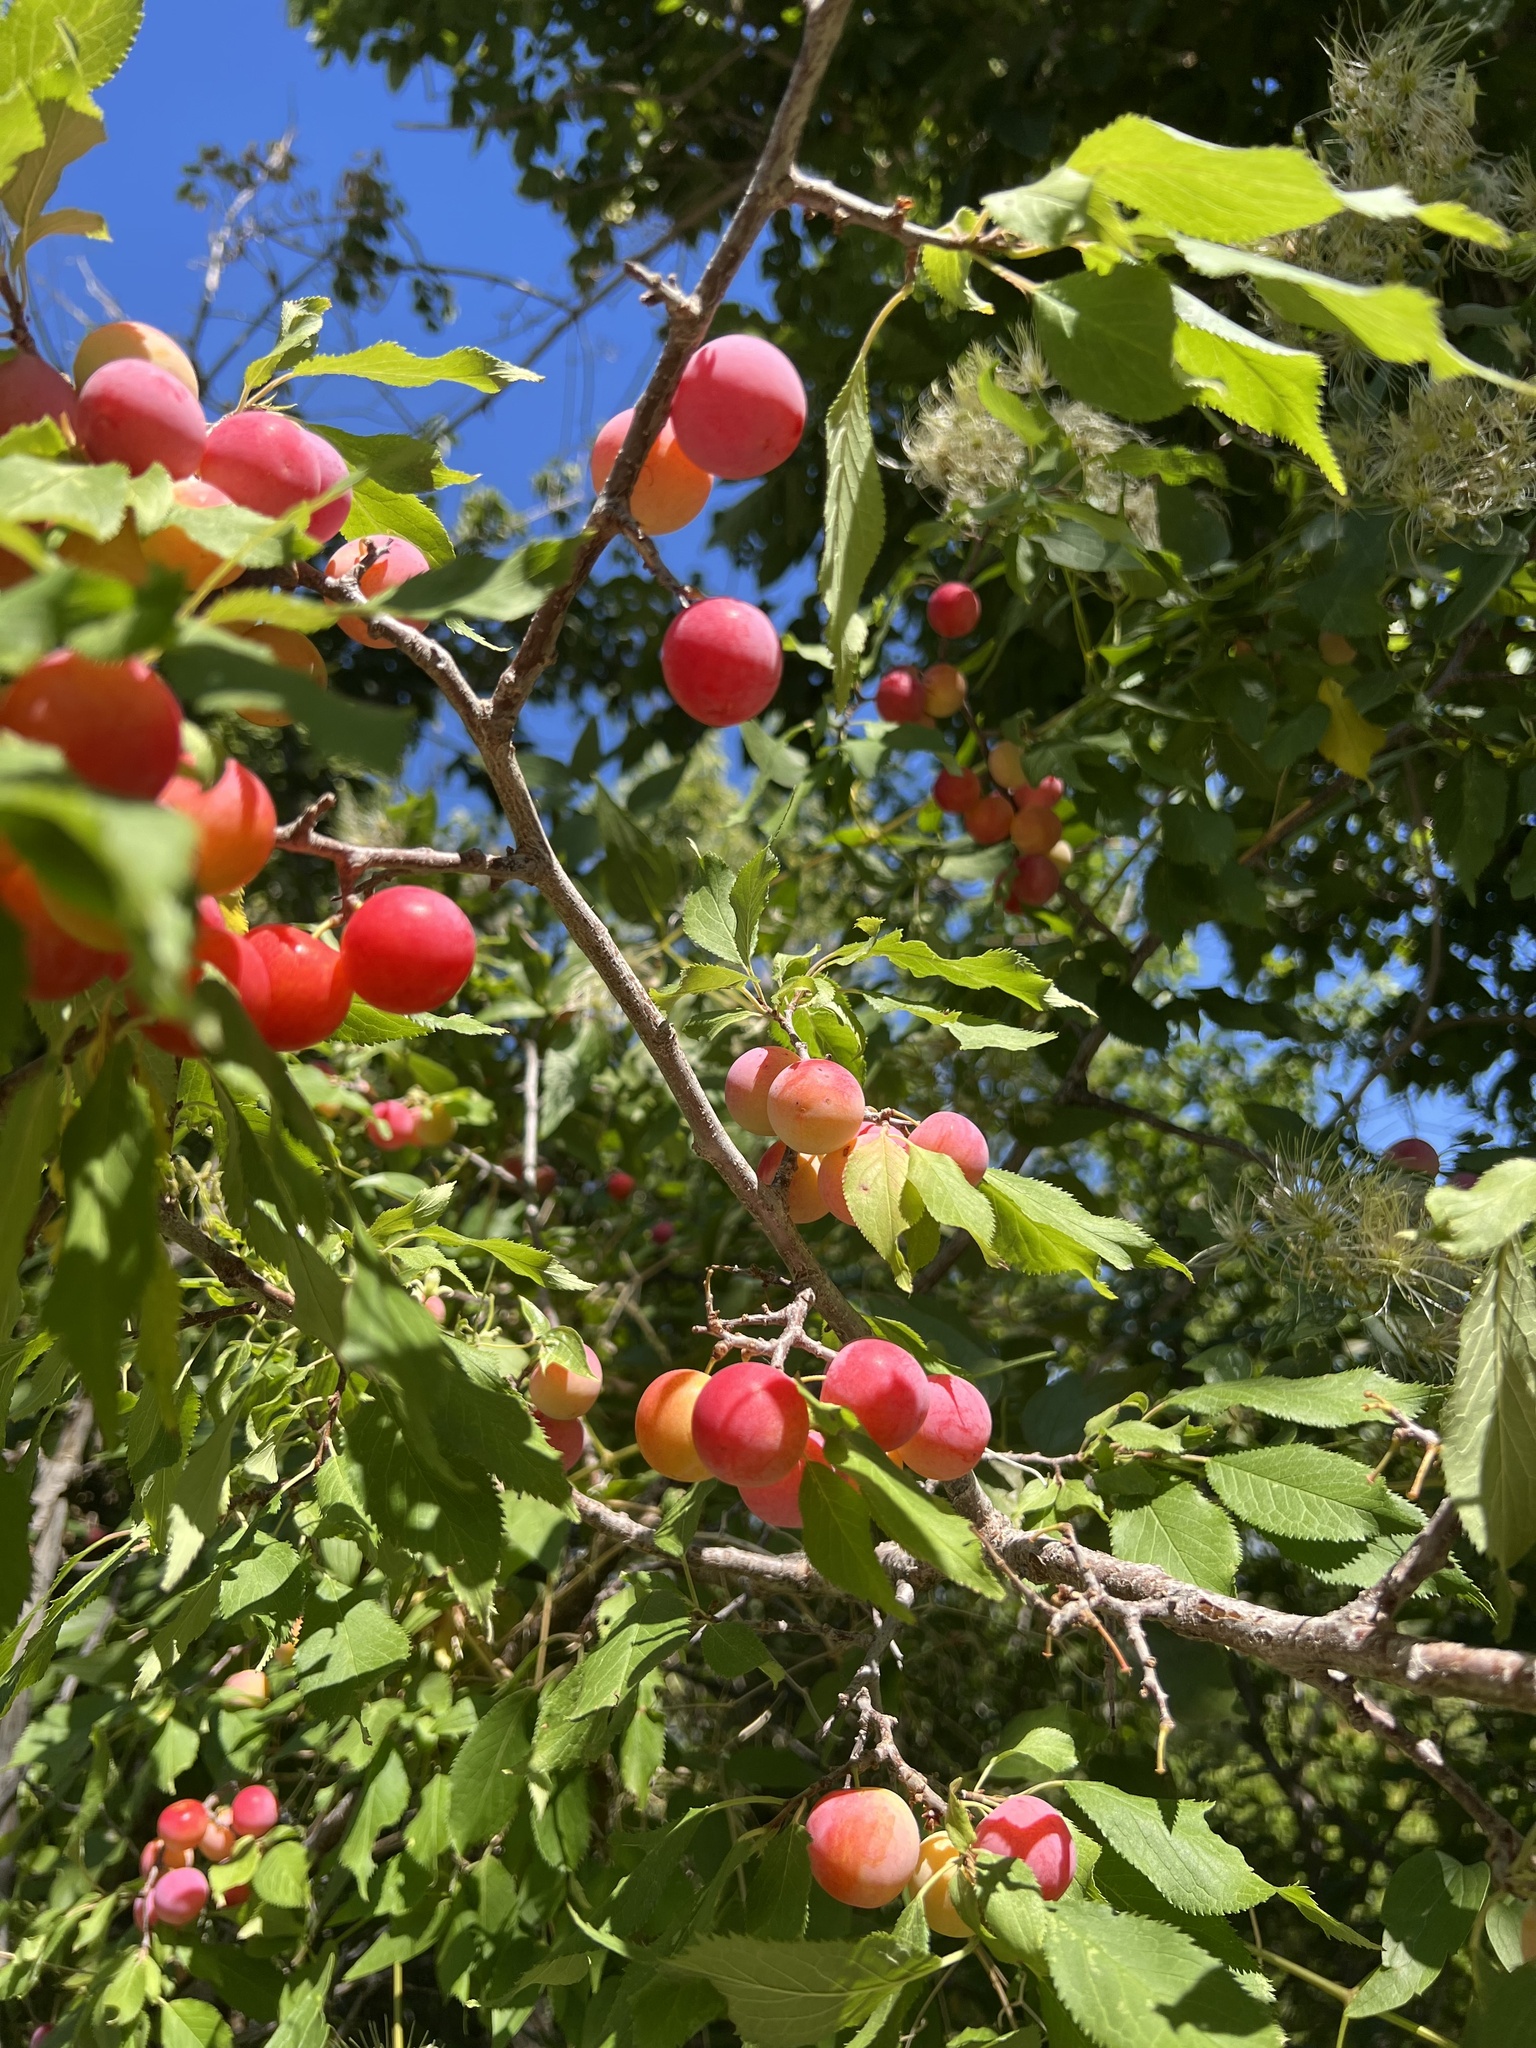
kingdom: Plantae
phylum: Tracheophyta
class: Magnoliopsida
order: Rosales
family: Rosaceae
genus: Prunus
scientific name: Prunus orthosepala
